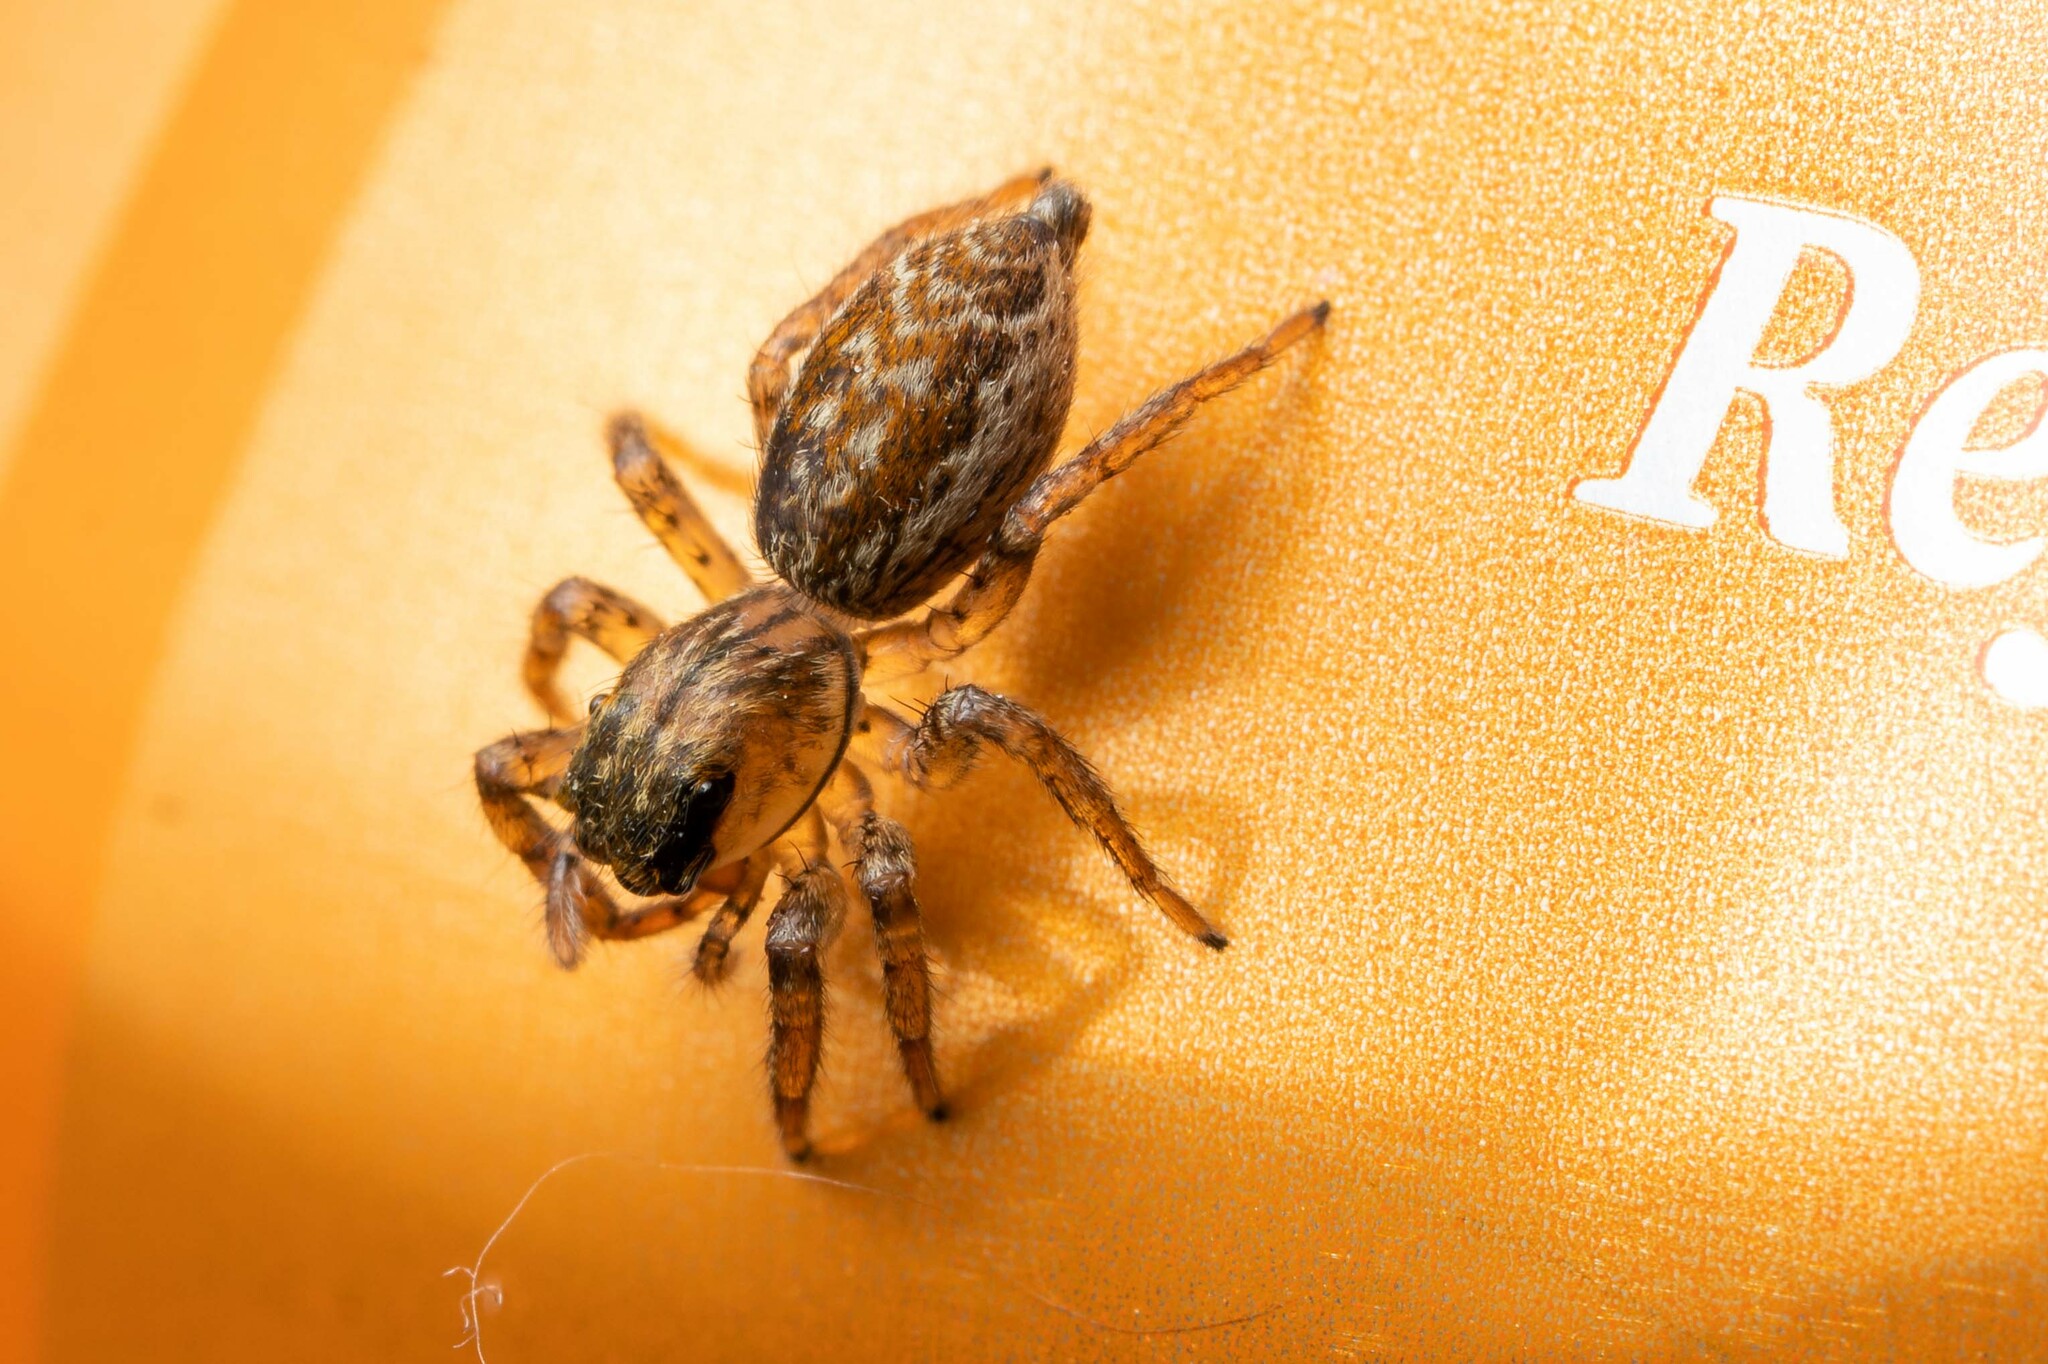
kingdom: Animalia
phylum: Arthropoda
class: Arachnida
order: Araneae
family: Salticidae
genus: Maevia
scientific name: Maevia inclemens
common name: Dimorphic jumper
